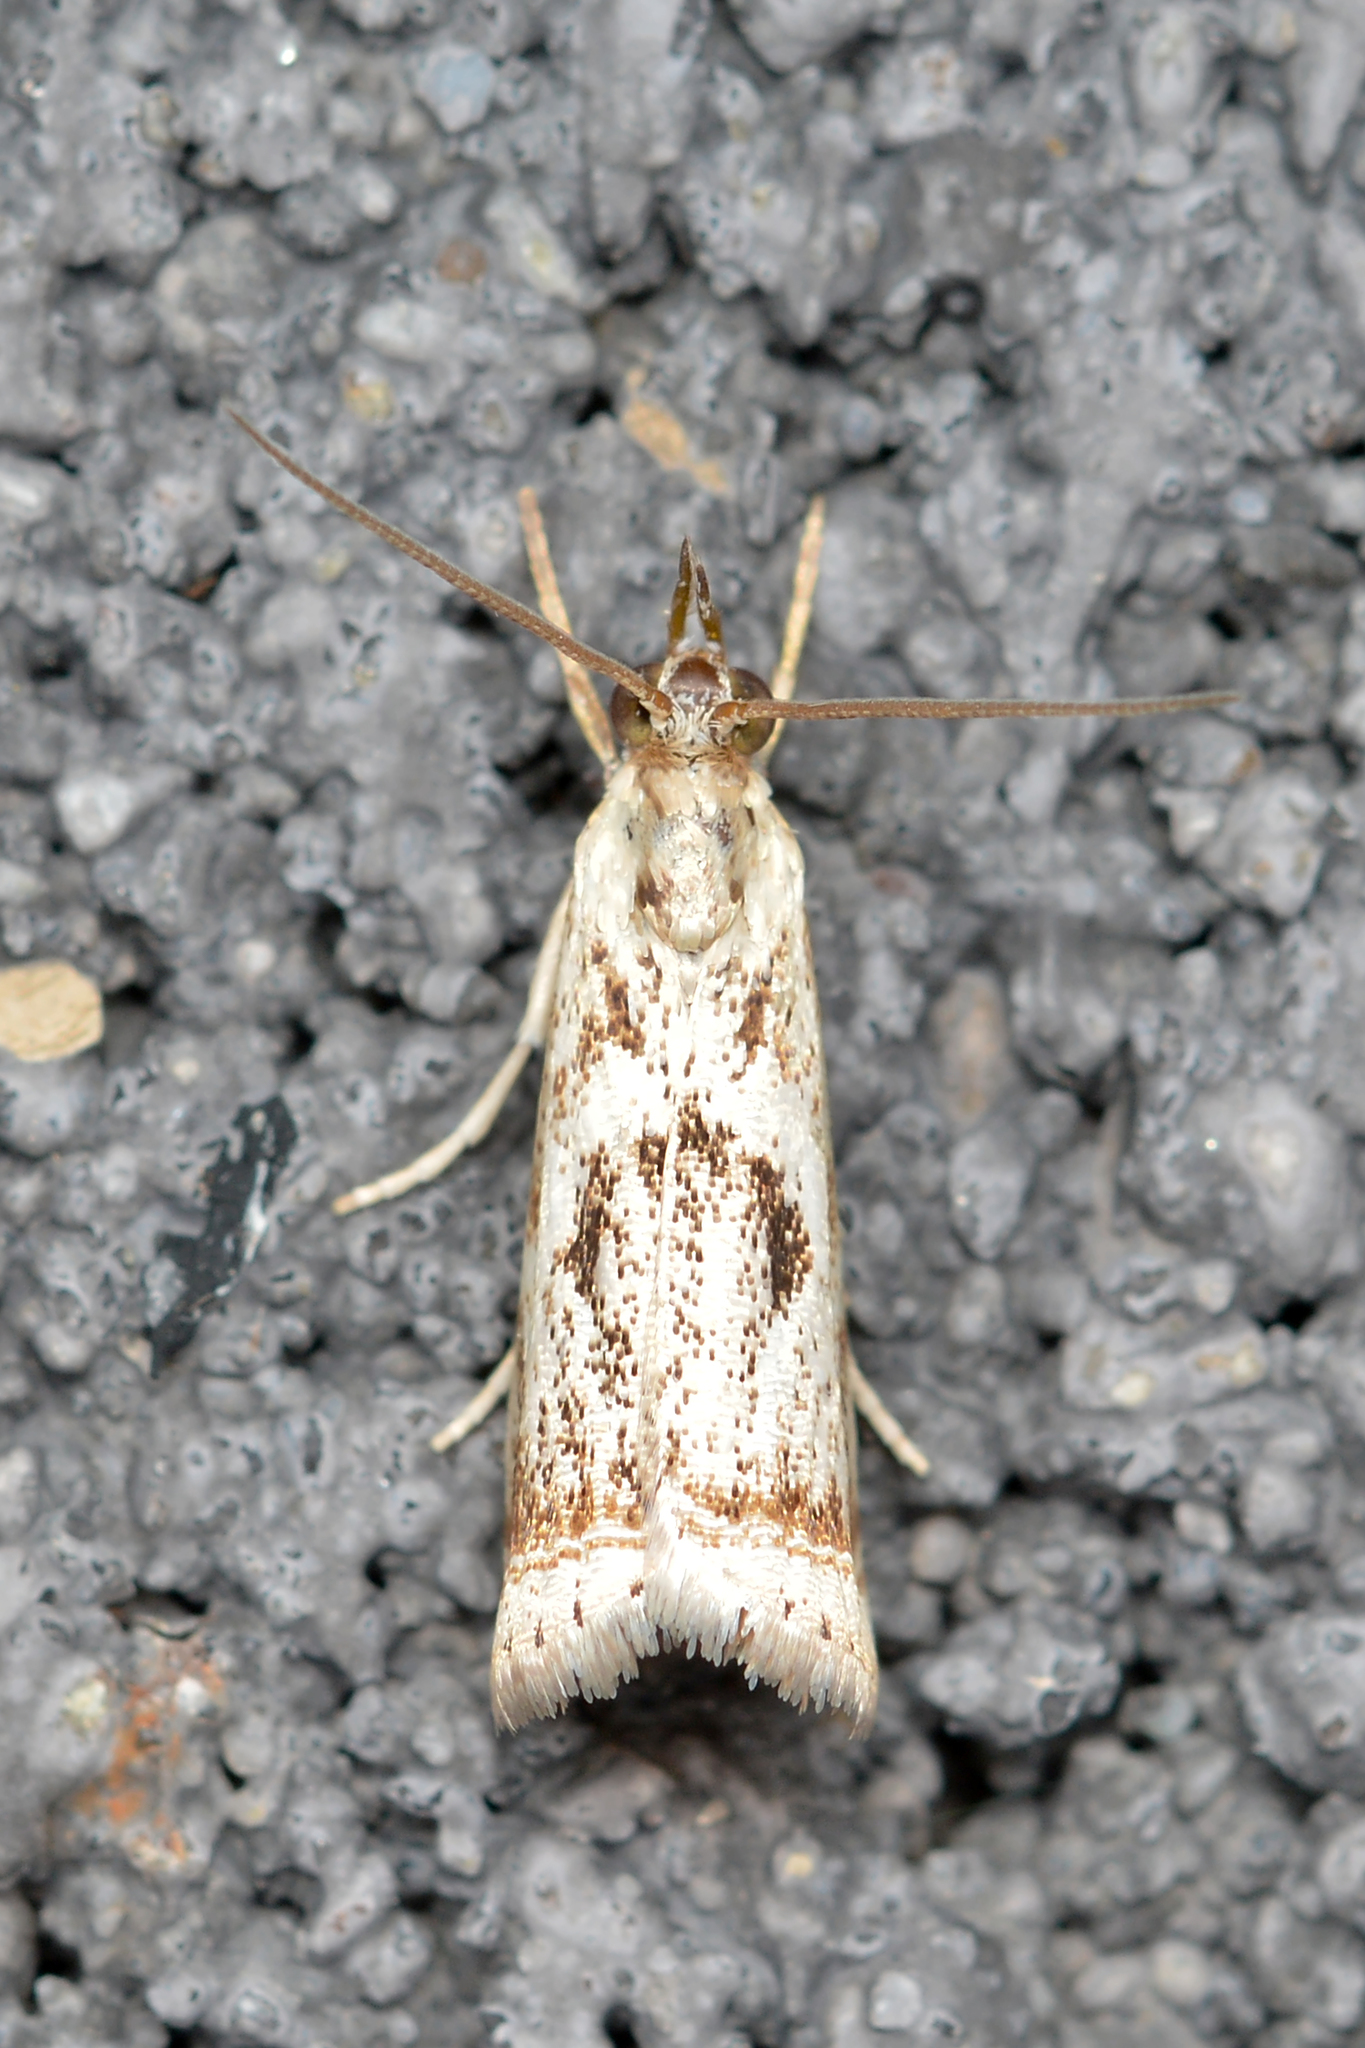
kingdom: Animalia
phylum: Arthropoda
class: Insecta
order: Lepidoptera
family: Crambidae
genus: Microcrambus
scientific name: Microcrambus elegans
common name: Elegant grass-veneer
